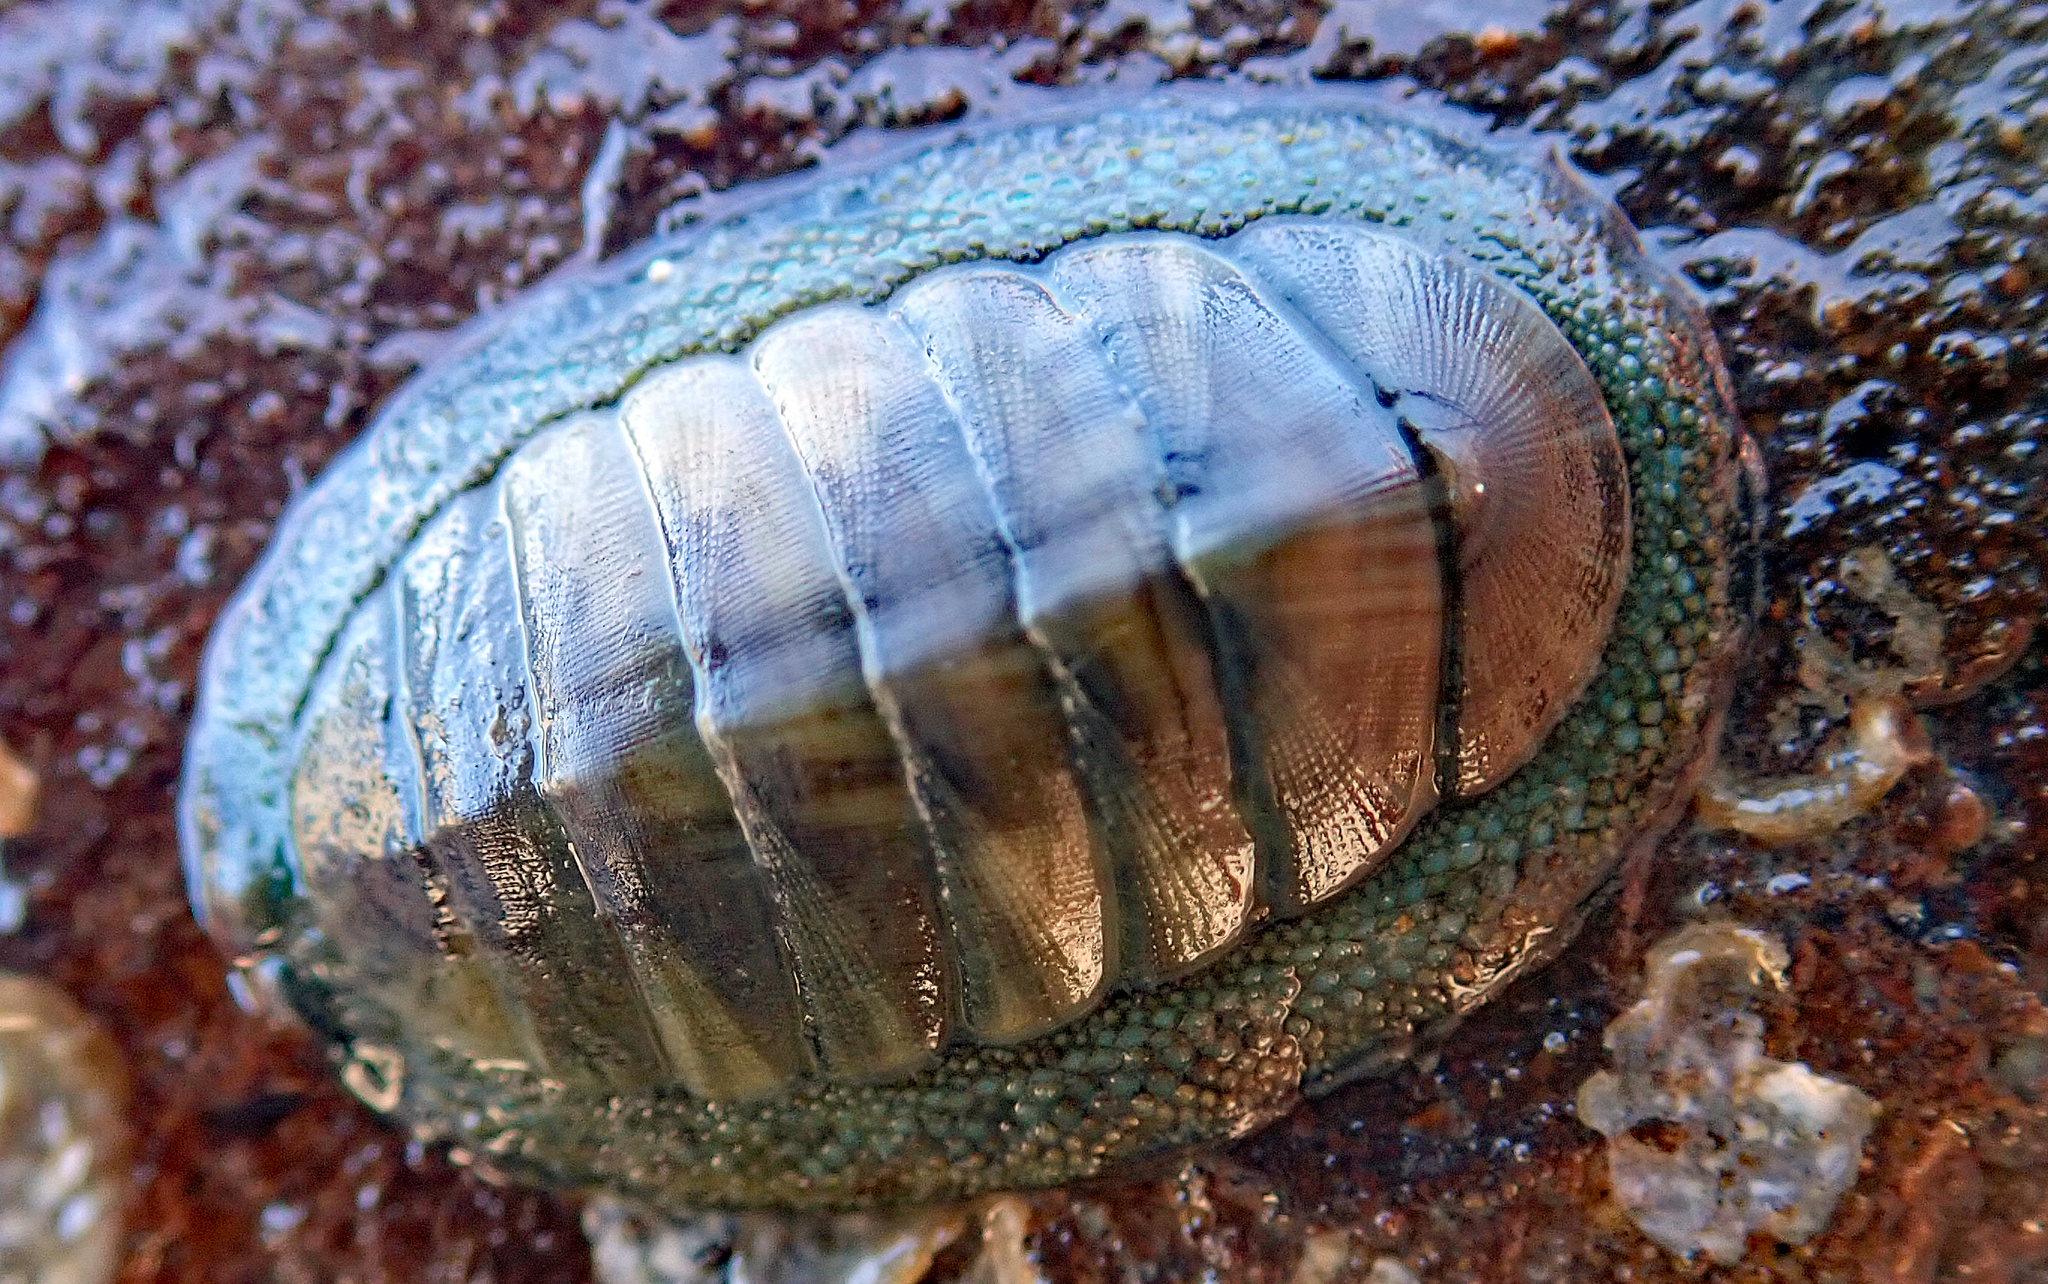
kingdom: Animalia
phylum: Mollusca
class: Polyplacophora
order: Chitonida
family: Chitonidae
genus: Chiton
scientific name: Chiton glaucus
